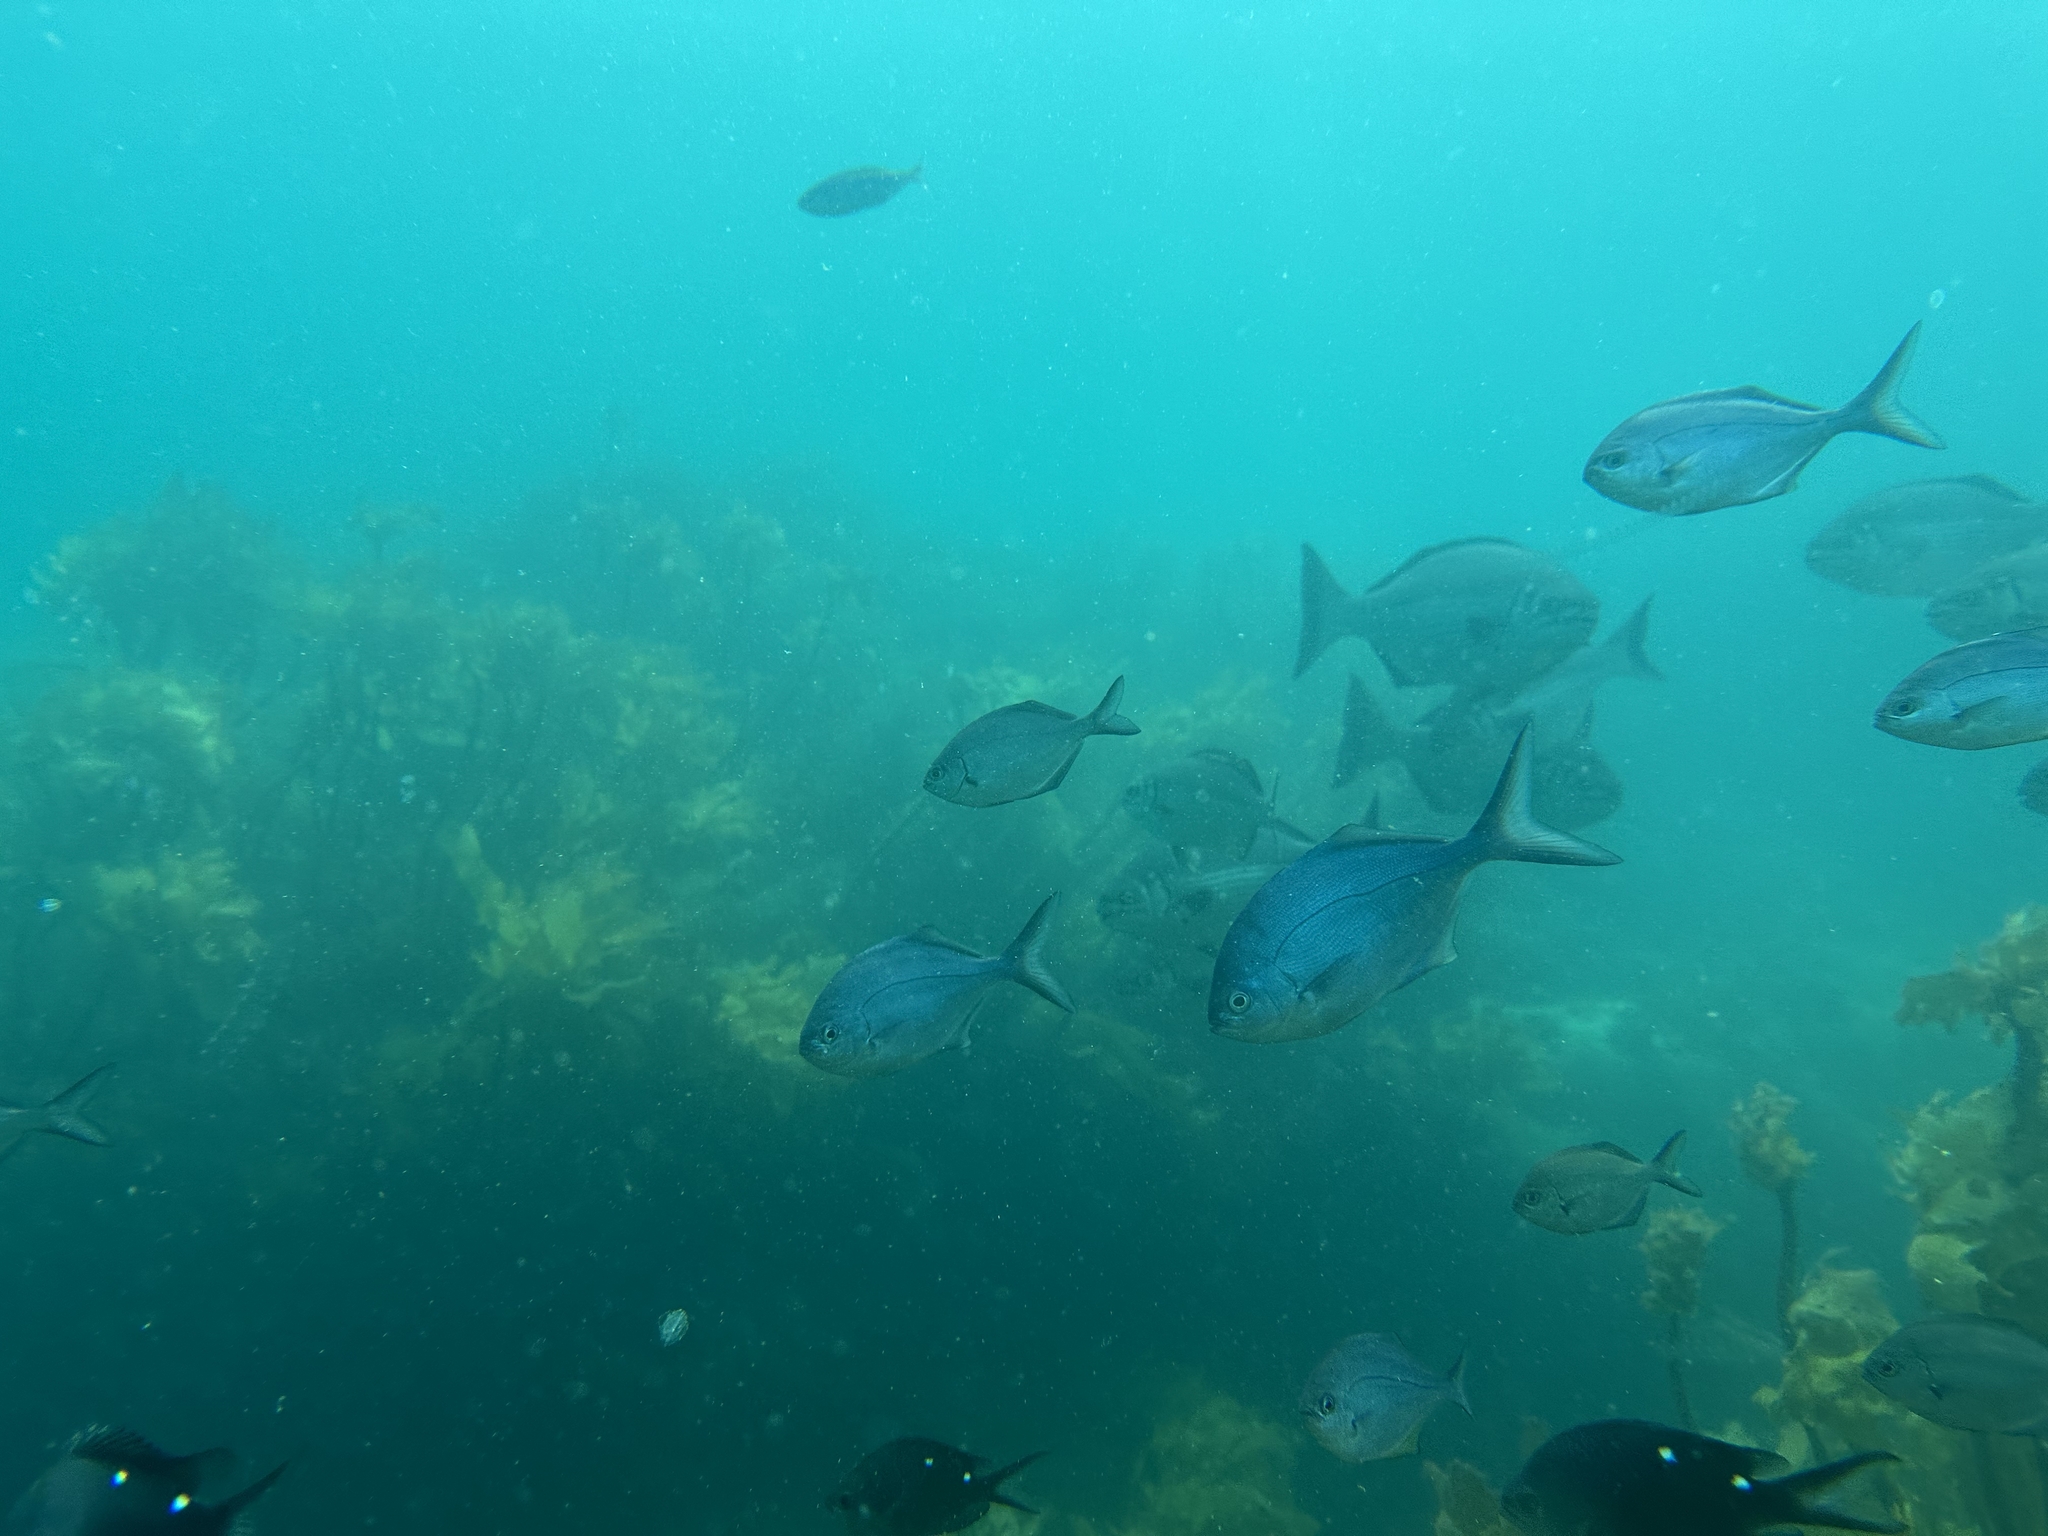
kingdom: Animalia
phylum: Chordata
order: Perciformes
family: Kyphosidae
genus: Scorpis
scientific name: Scorpis lineolata
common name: Sweep
